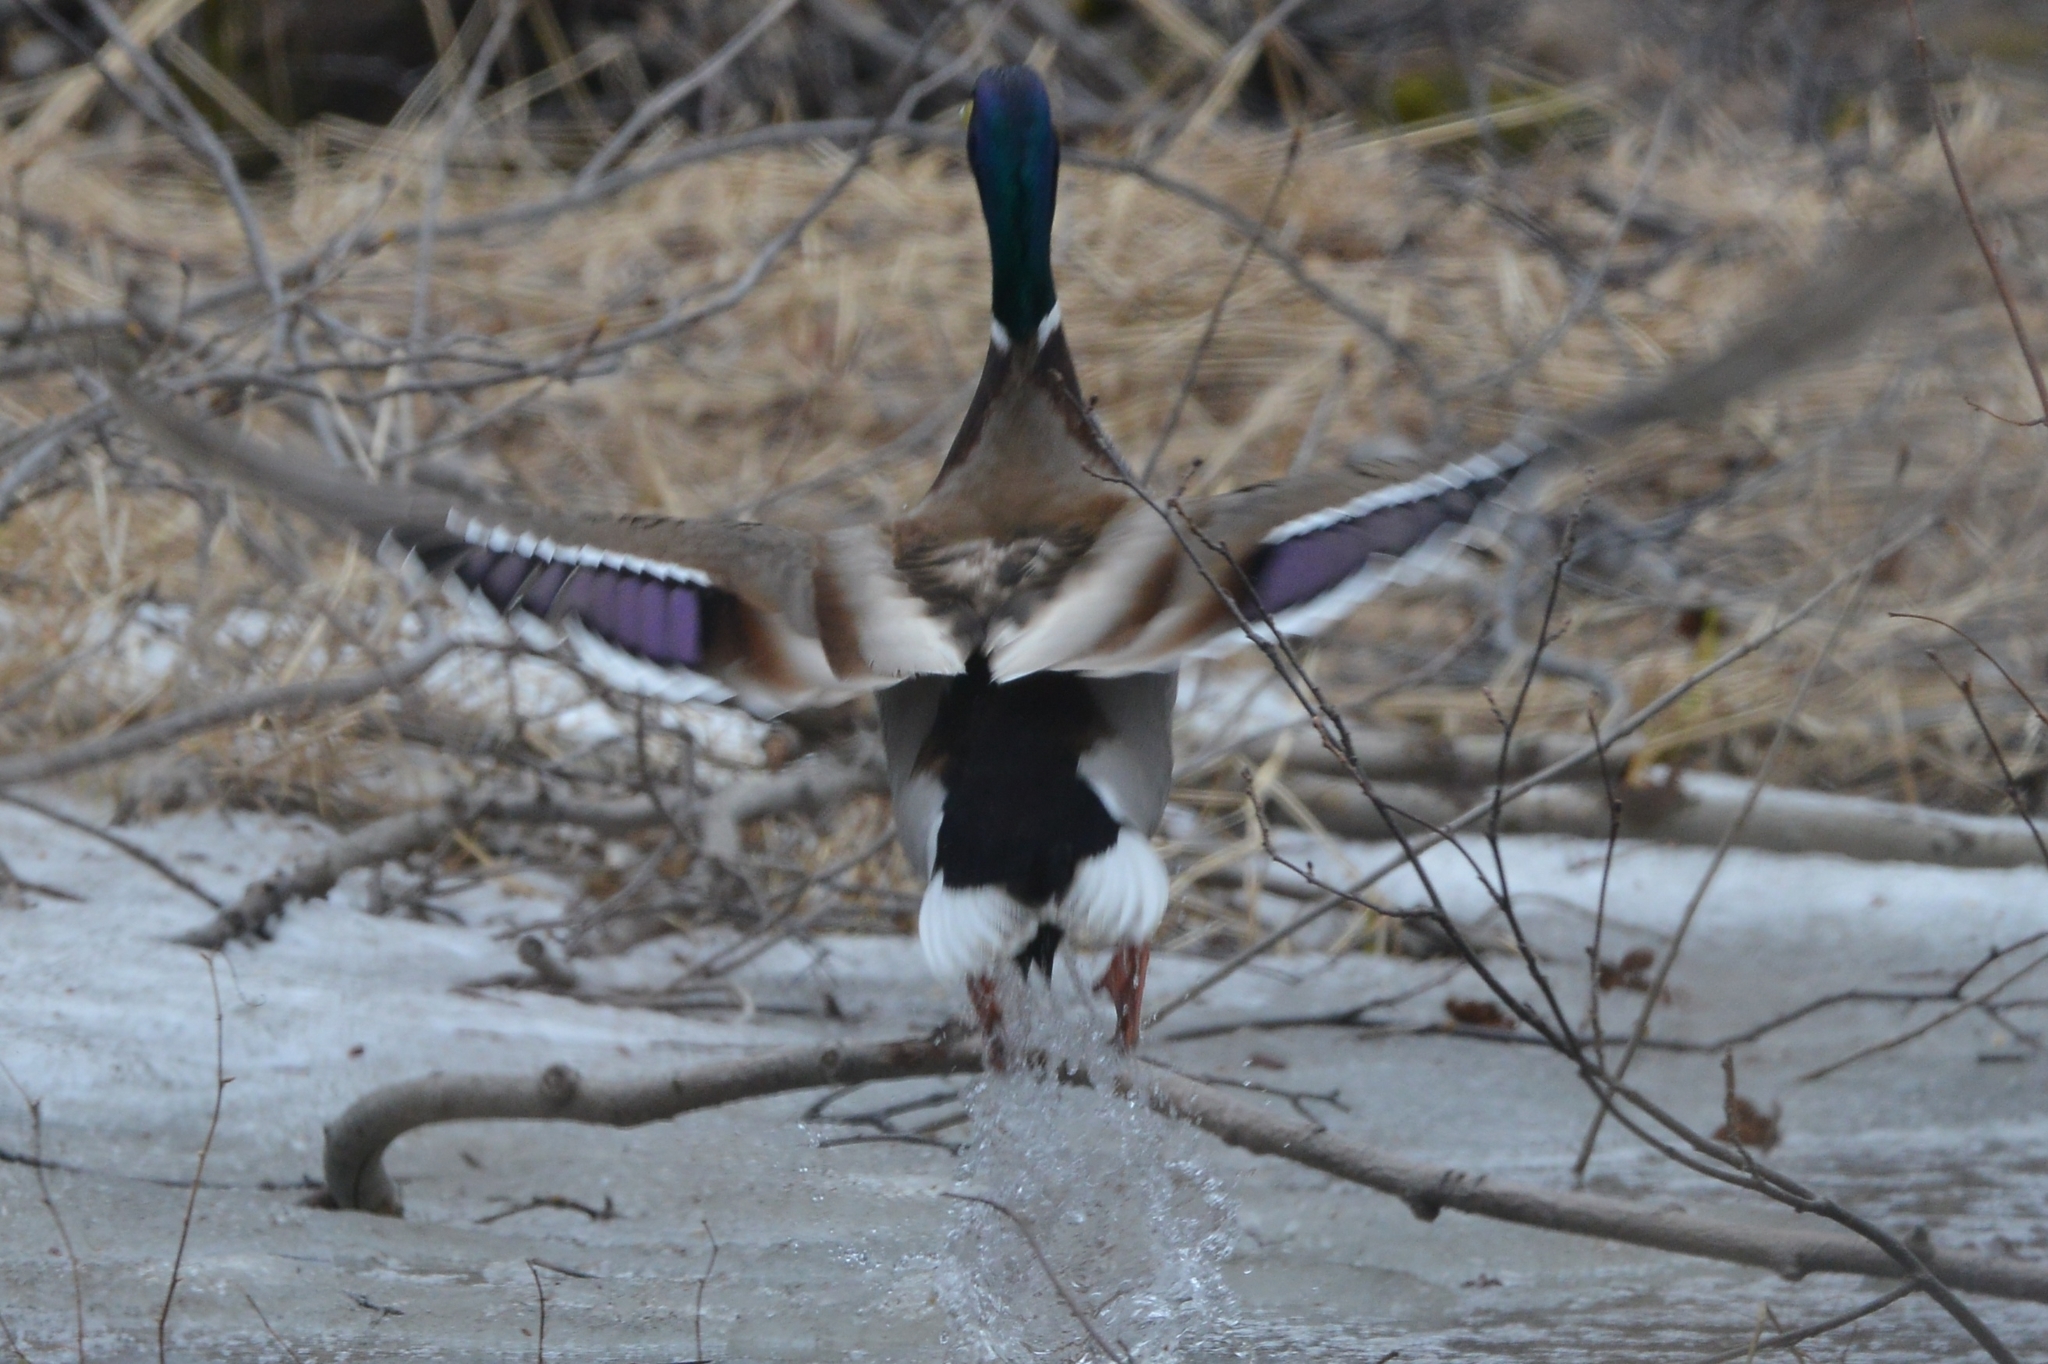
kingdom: Animalia
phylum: Chordata
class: Aves
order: Anseriformes
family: Anatidae
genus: Anas
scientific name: Anas platyrhynchos
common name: Mallard
